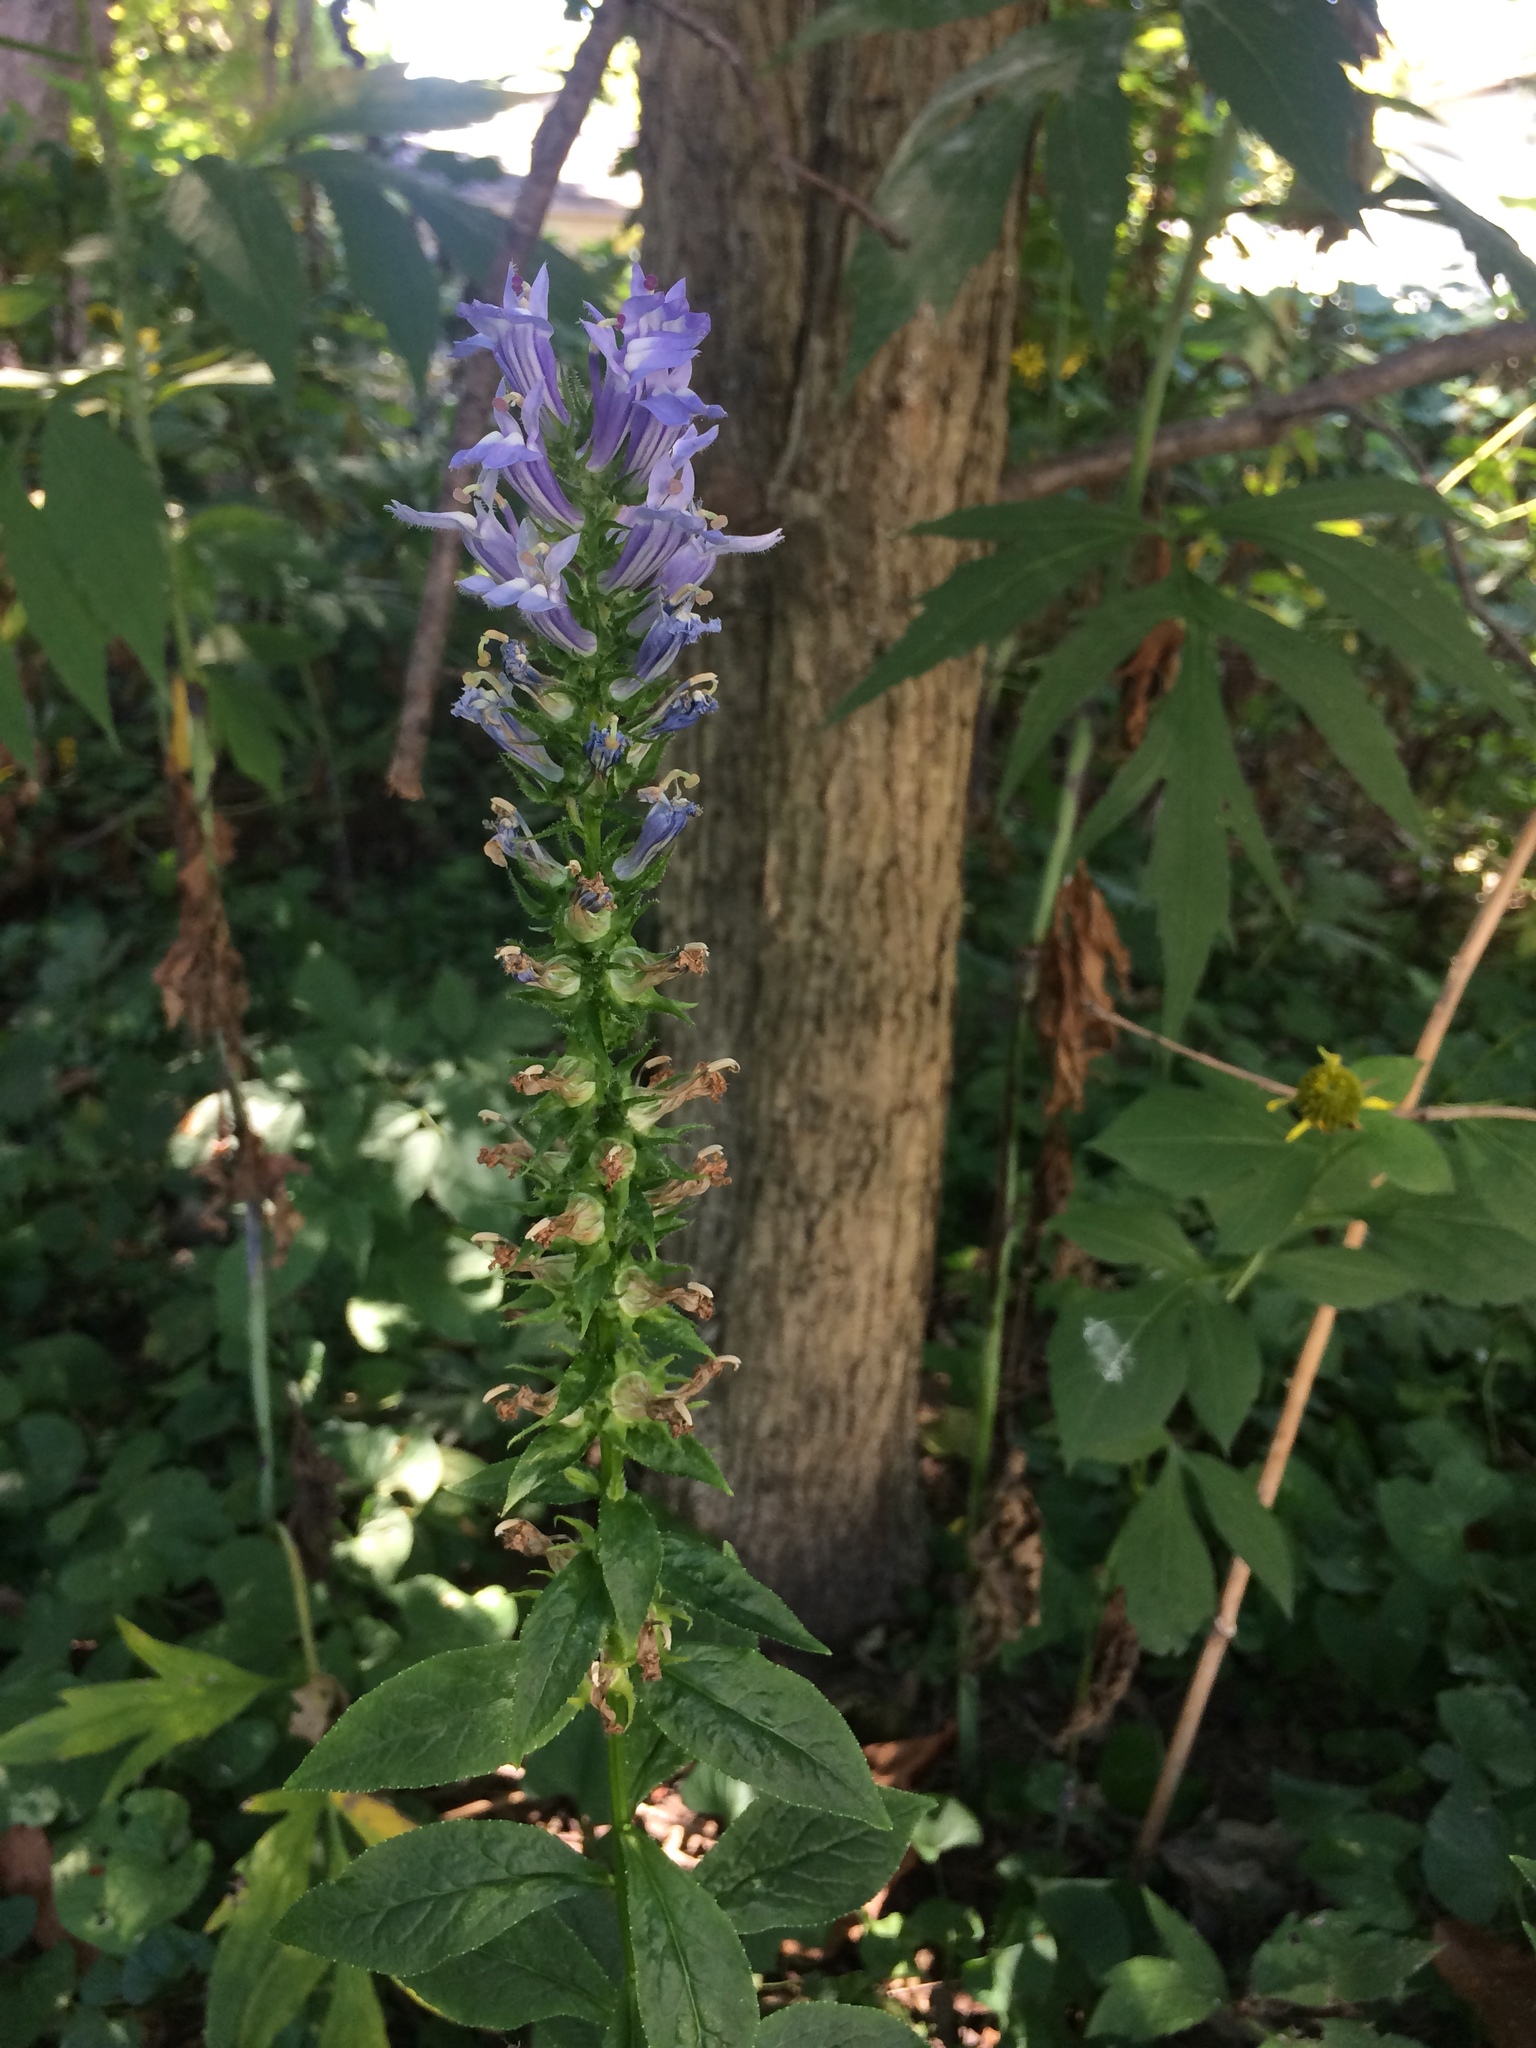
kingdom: Plantae
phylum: Tracheophyta
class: Magnoliopsida
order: Asterales
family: Campanulaceae
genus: Lobelia
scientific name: Lobelia siphilitica
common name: Great lobelia
